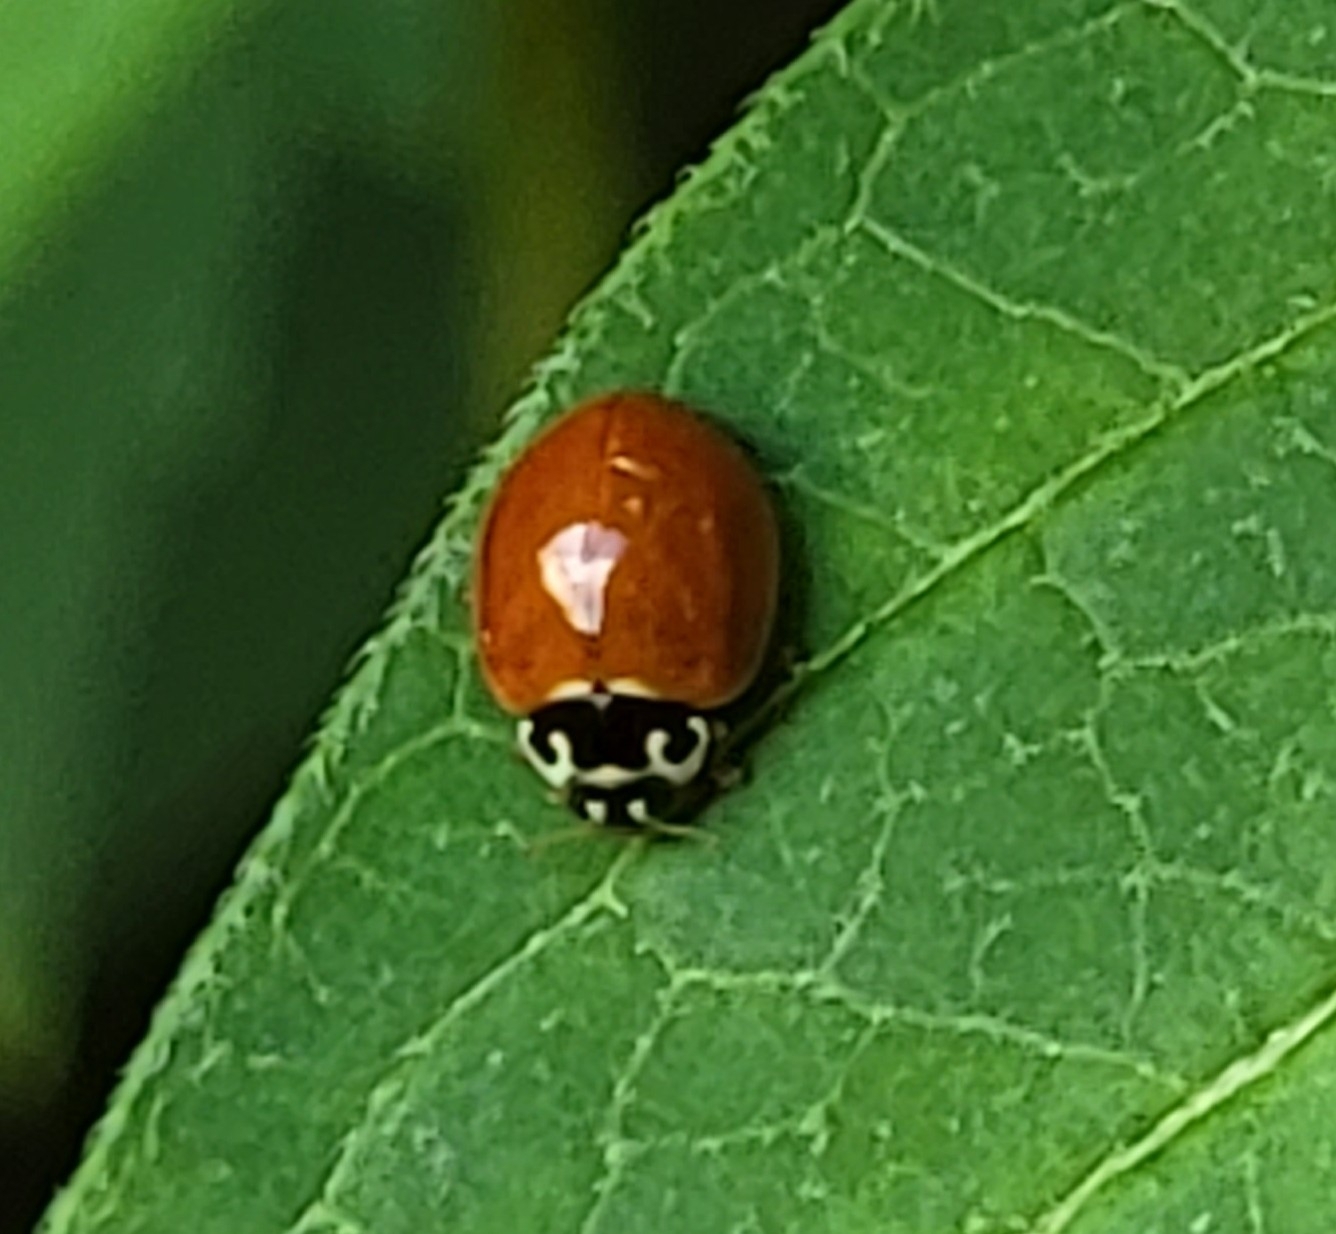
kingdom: Animalia
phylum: Arthropoda
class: Insecta
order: Coleoptera
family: Coccinellidae
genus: Cycloneda
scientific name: Cycloneda munda
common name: Polished lady beetle
